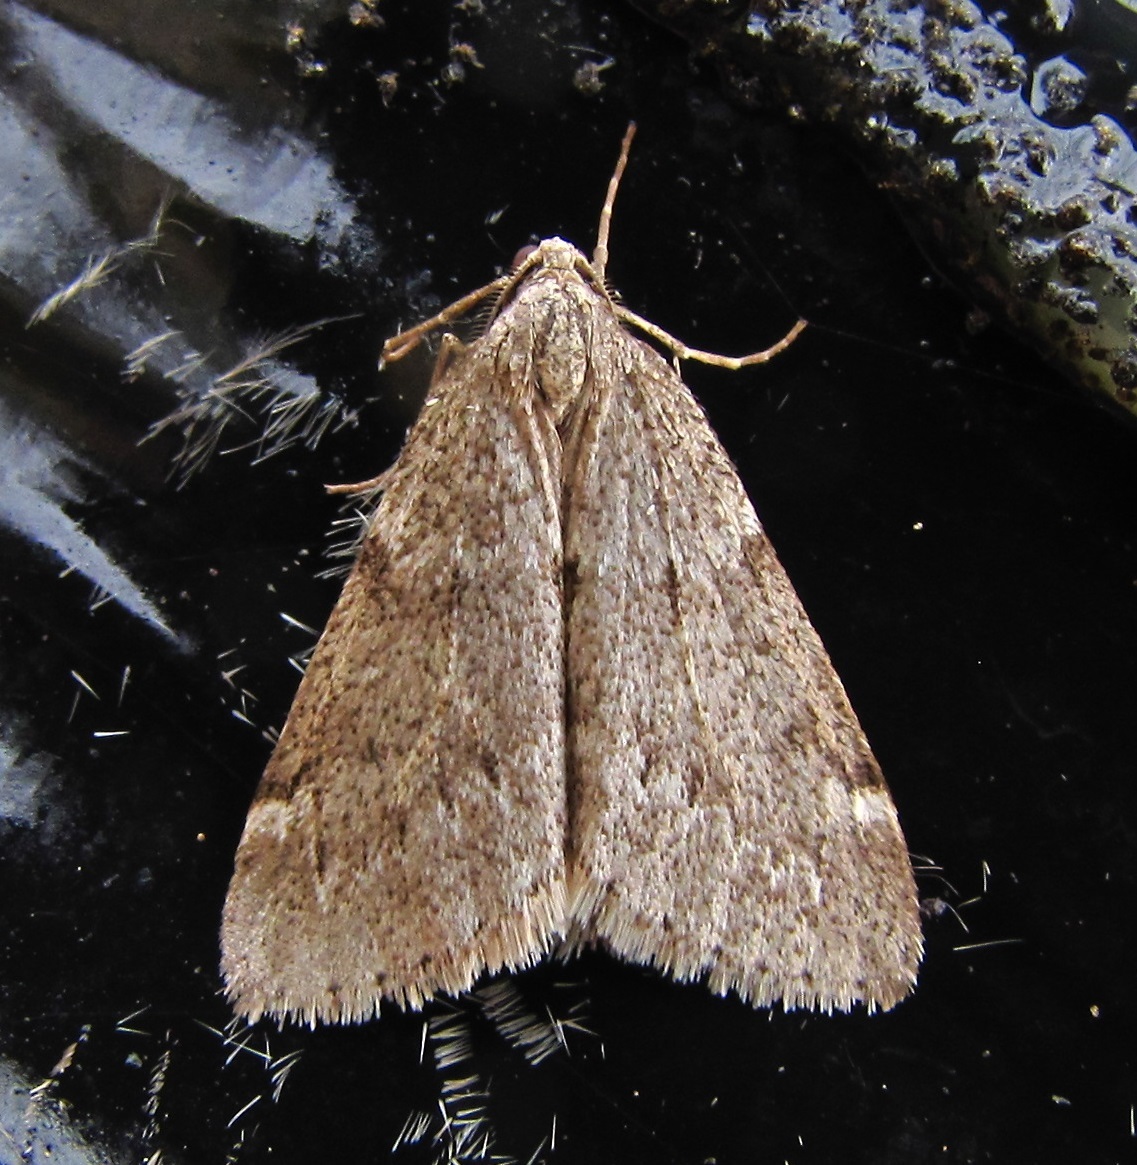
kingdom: Animalia
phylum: Arthropoda
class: Insecta
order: Lepidoptera
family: Geometridae
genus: Alsophila
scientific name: Alsophila pometaria
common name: Fall cankerworm
